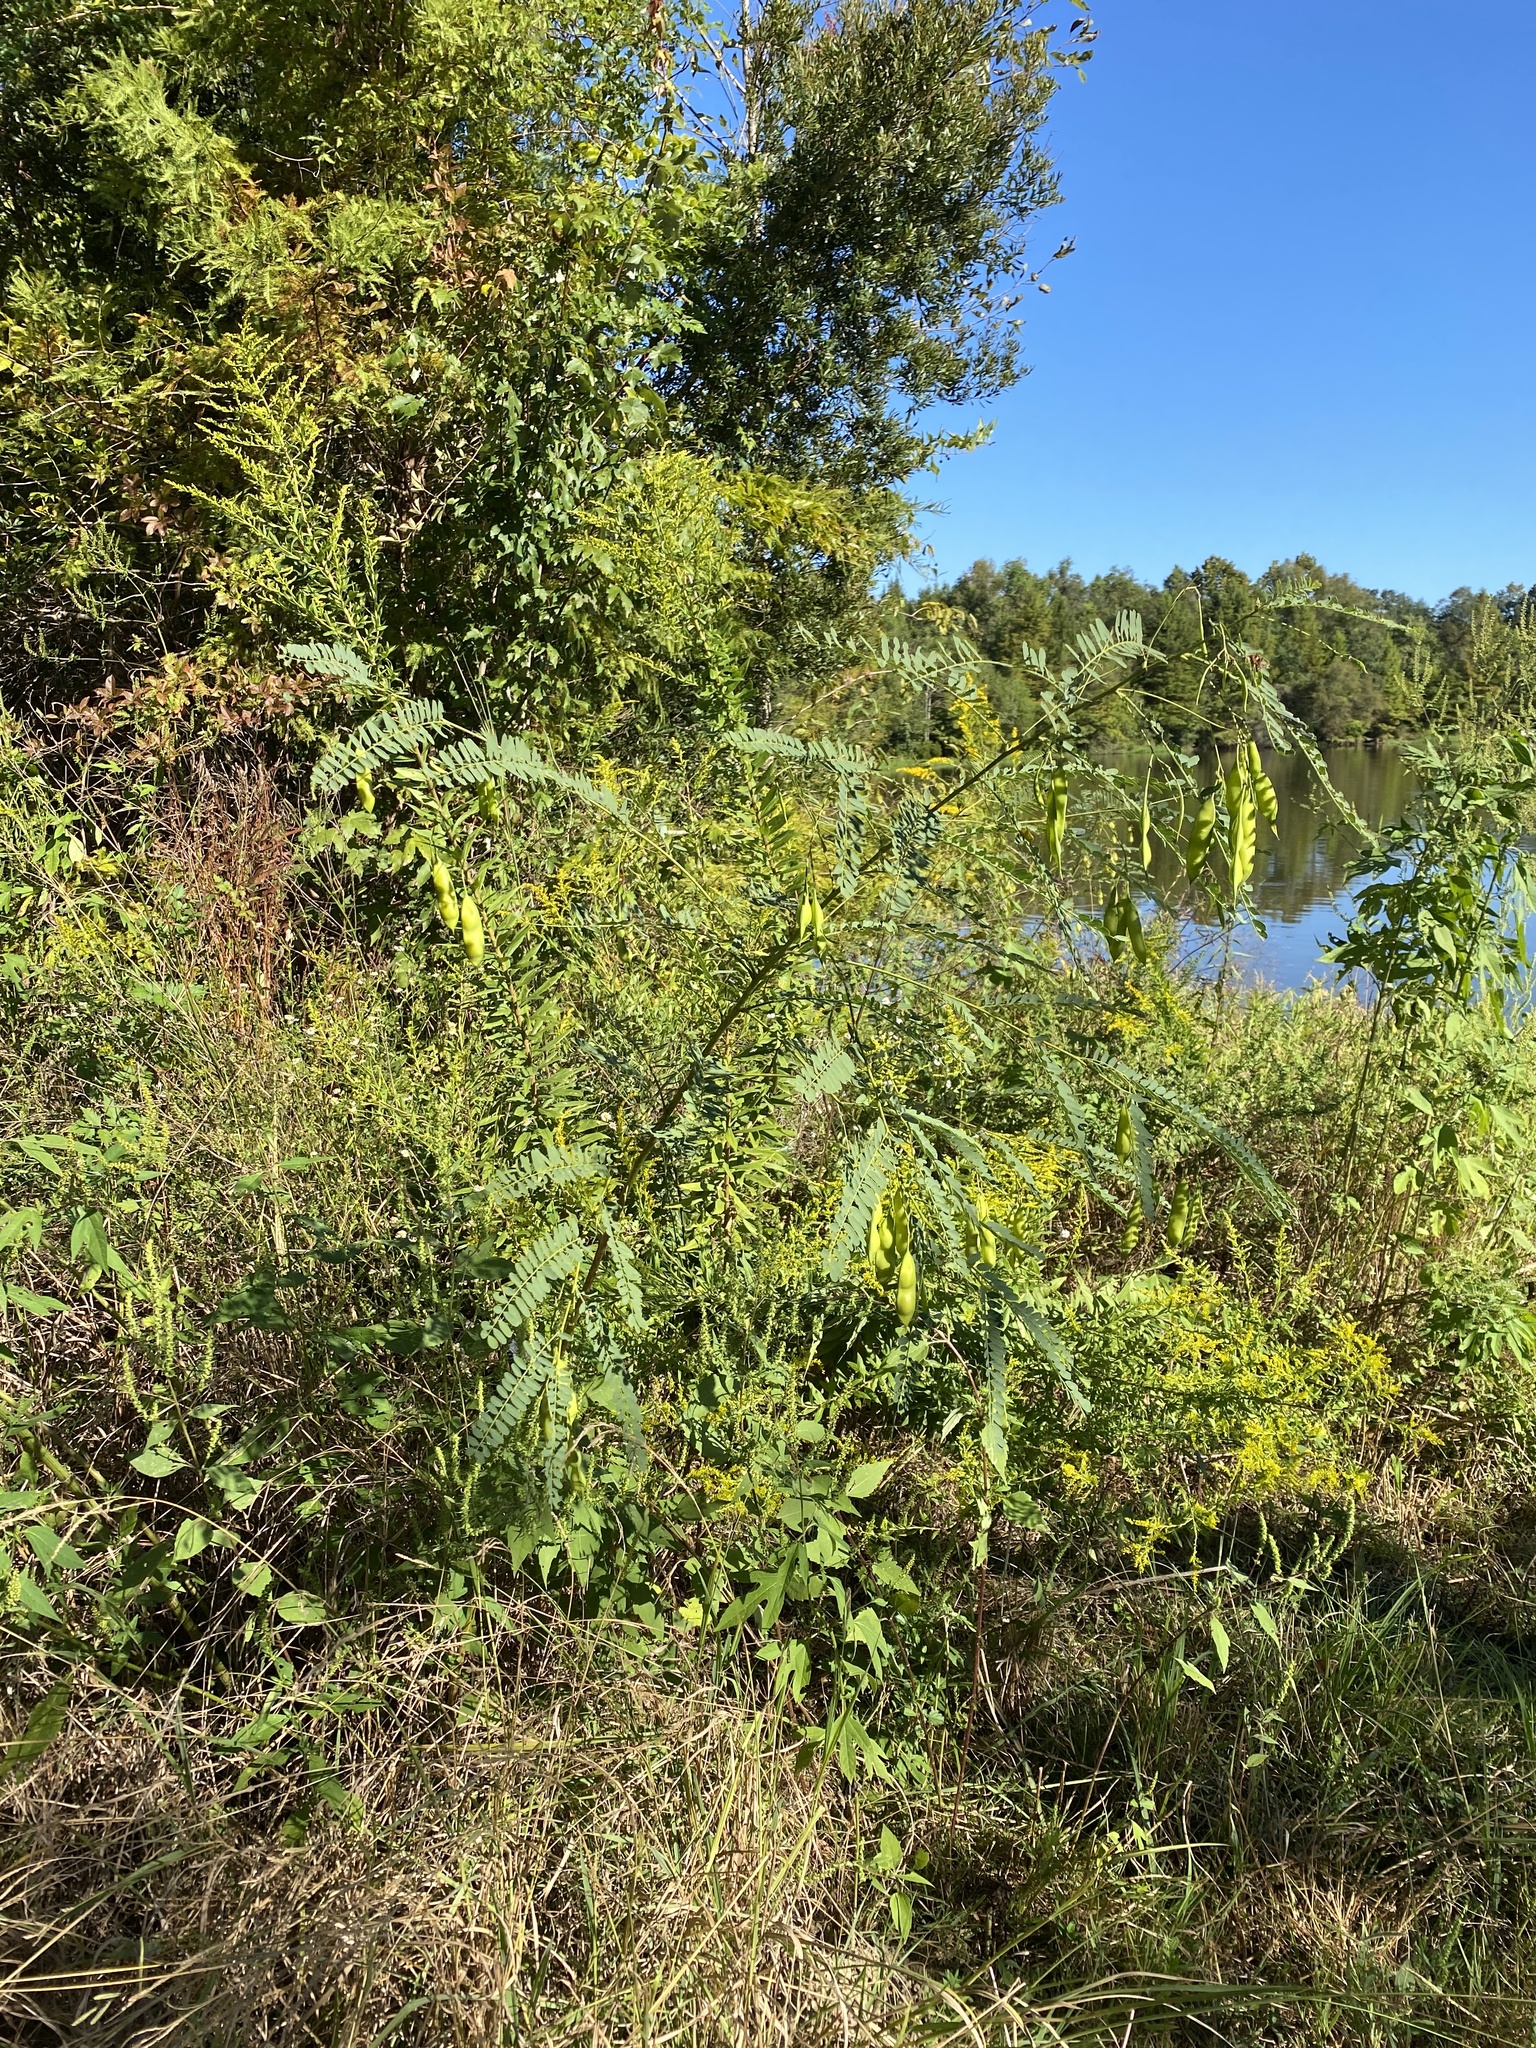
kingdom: Plantae
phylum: Tracheophyta
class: Magnoliopsida
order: Fabales
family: Fabaceae
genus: Sesbania
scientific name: Sesbania vesicaria
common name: Bagpod
